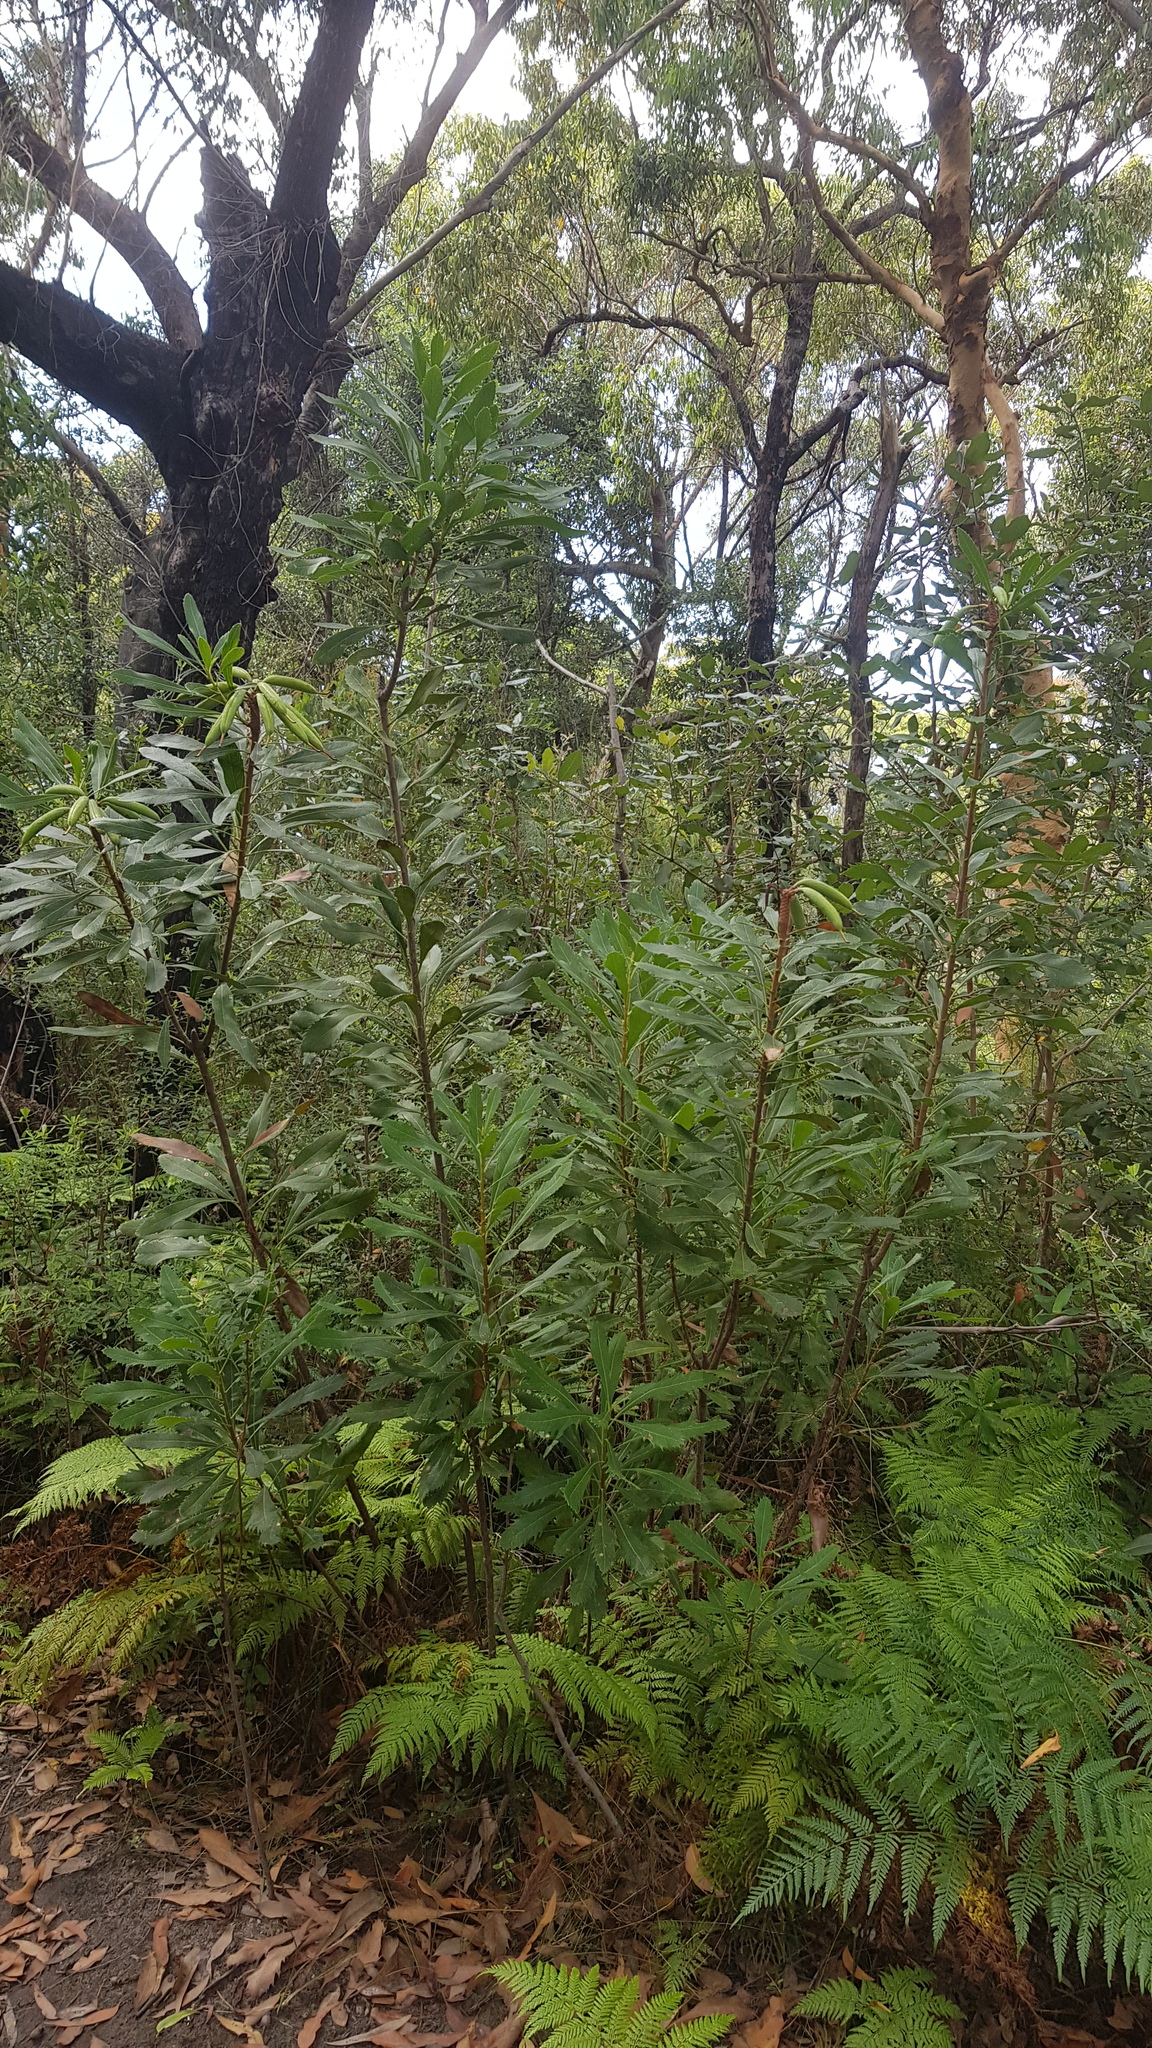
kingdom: Plantae
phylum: Tracheophyta
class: Magnoliopsida
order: Proteales
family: Proteaceae
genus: Telopea
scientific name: Telopea speciosissima
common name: New south wales waratah
